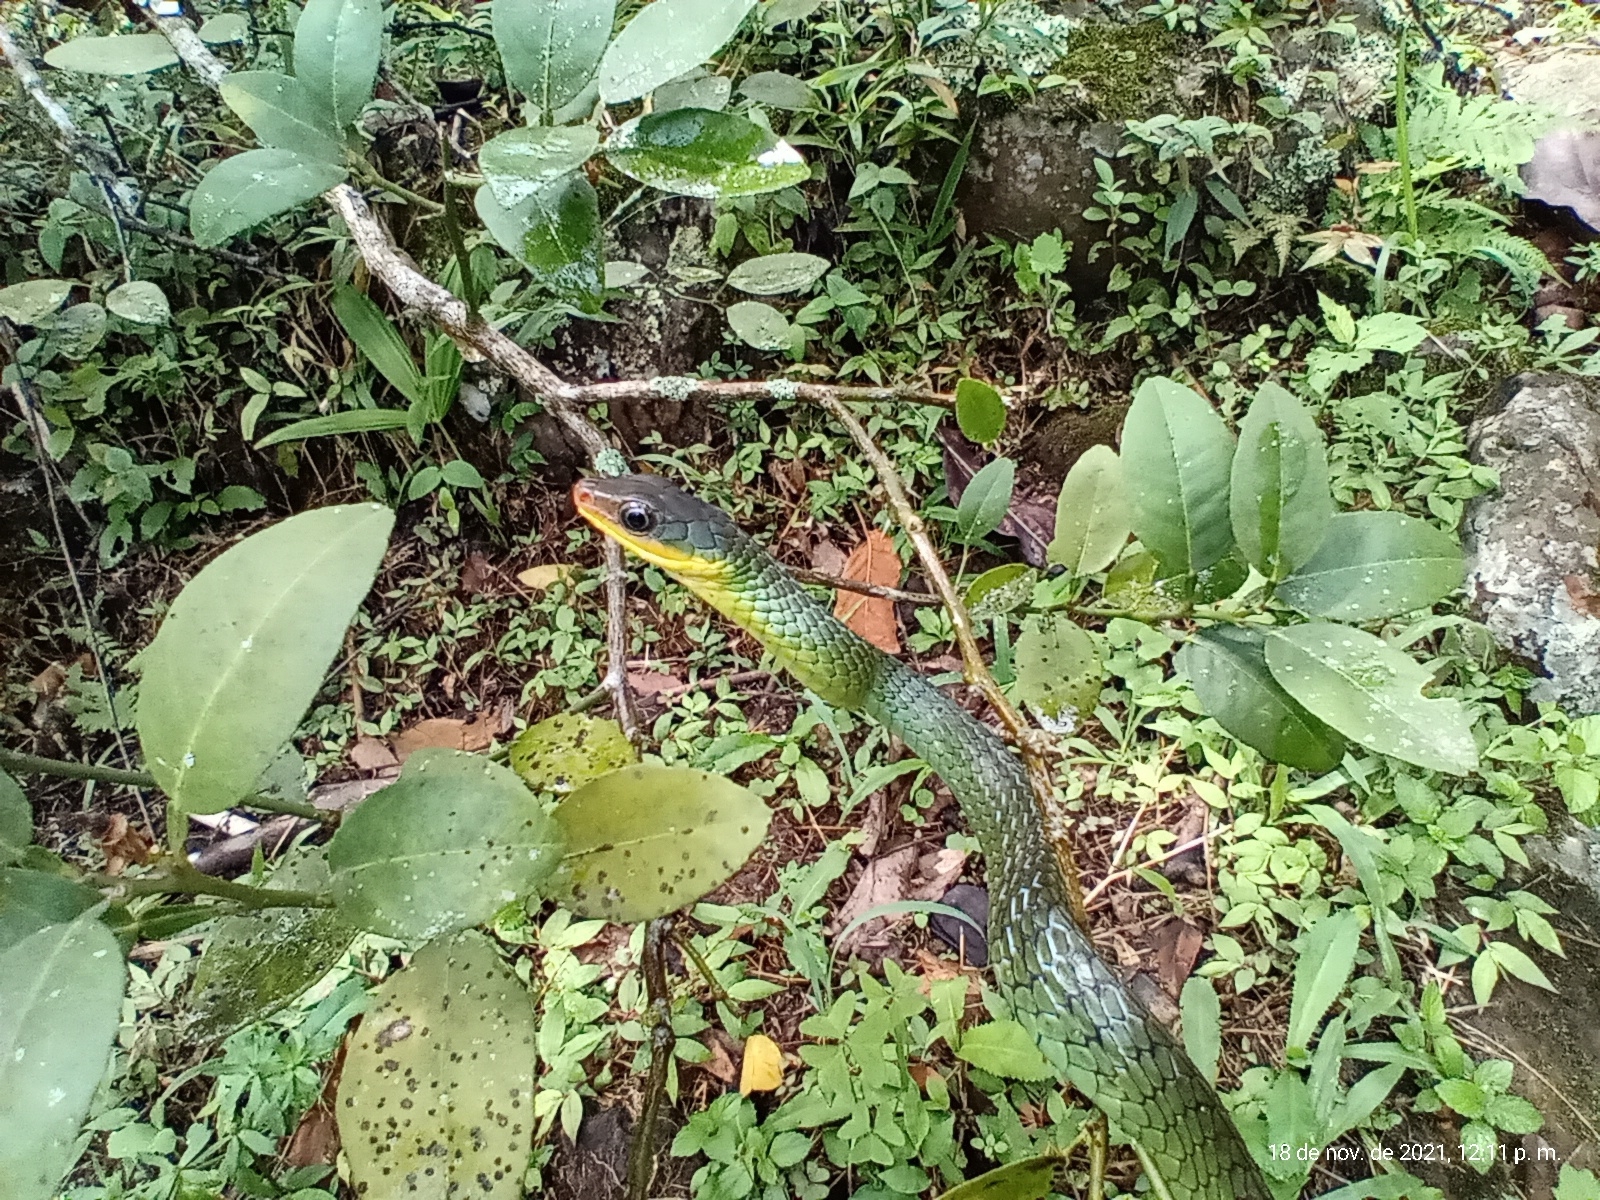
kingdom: Animalia
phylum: Chordata
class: Squamata
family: Colubridae
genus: Chironius
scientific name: Chironius exoletus
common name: Linnaeus' sipo
